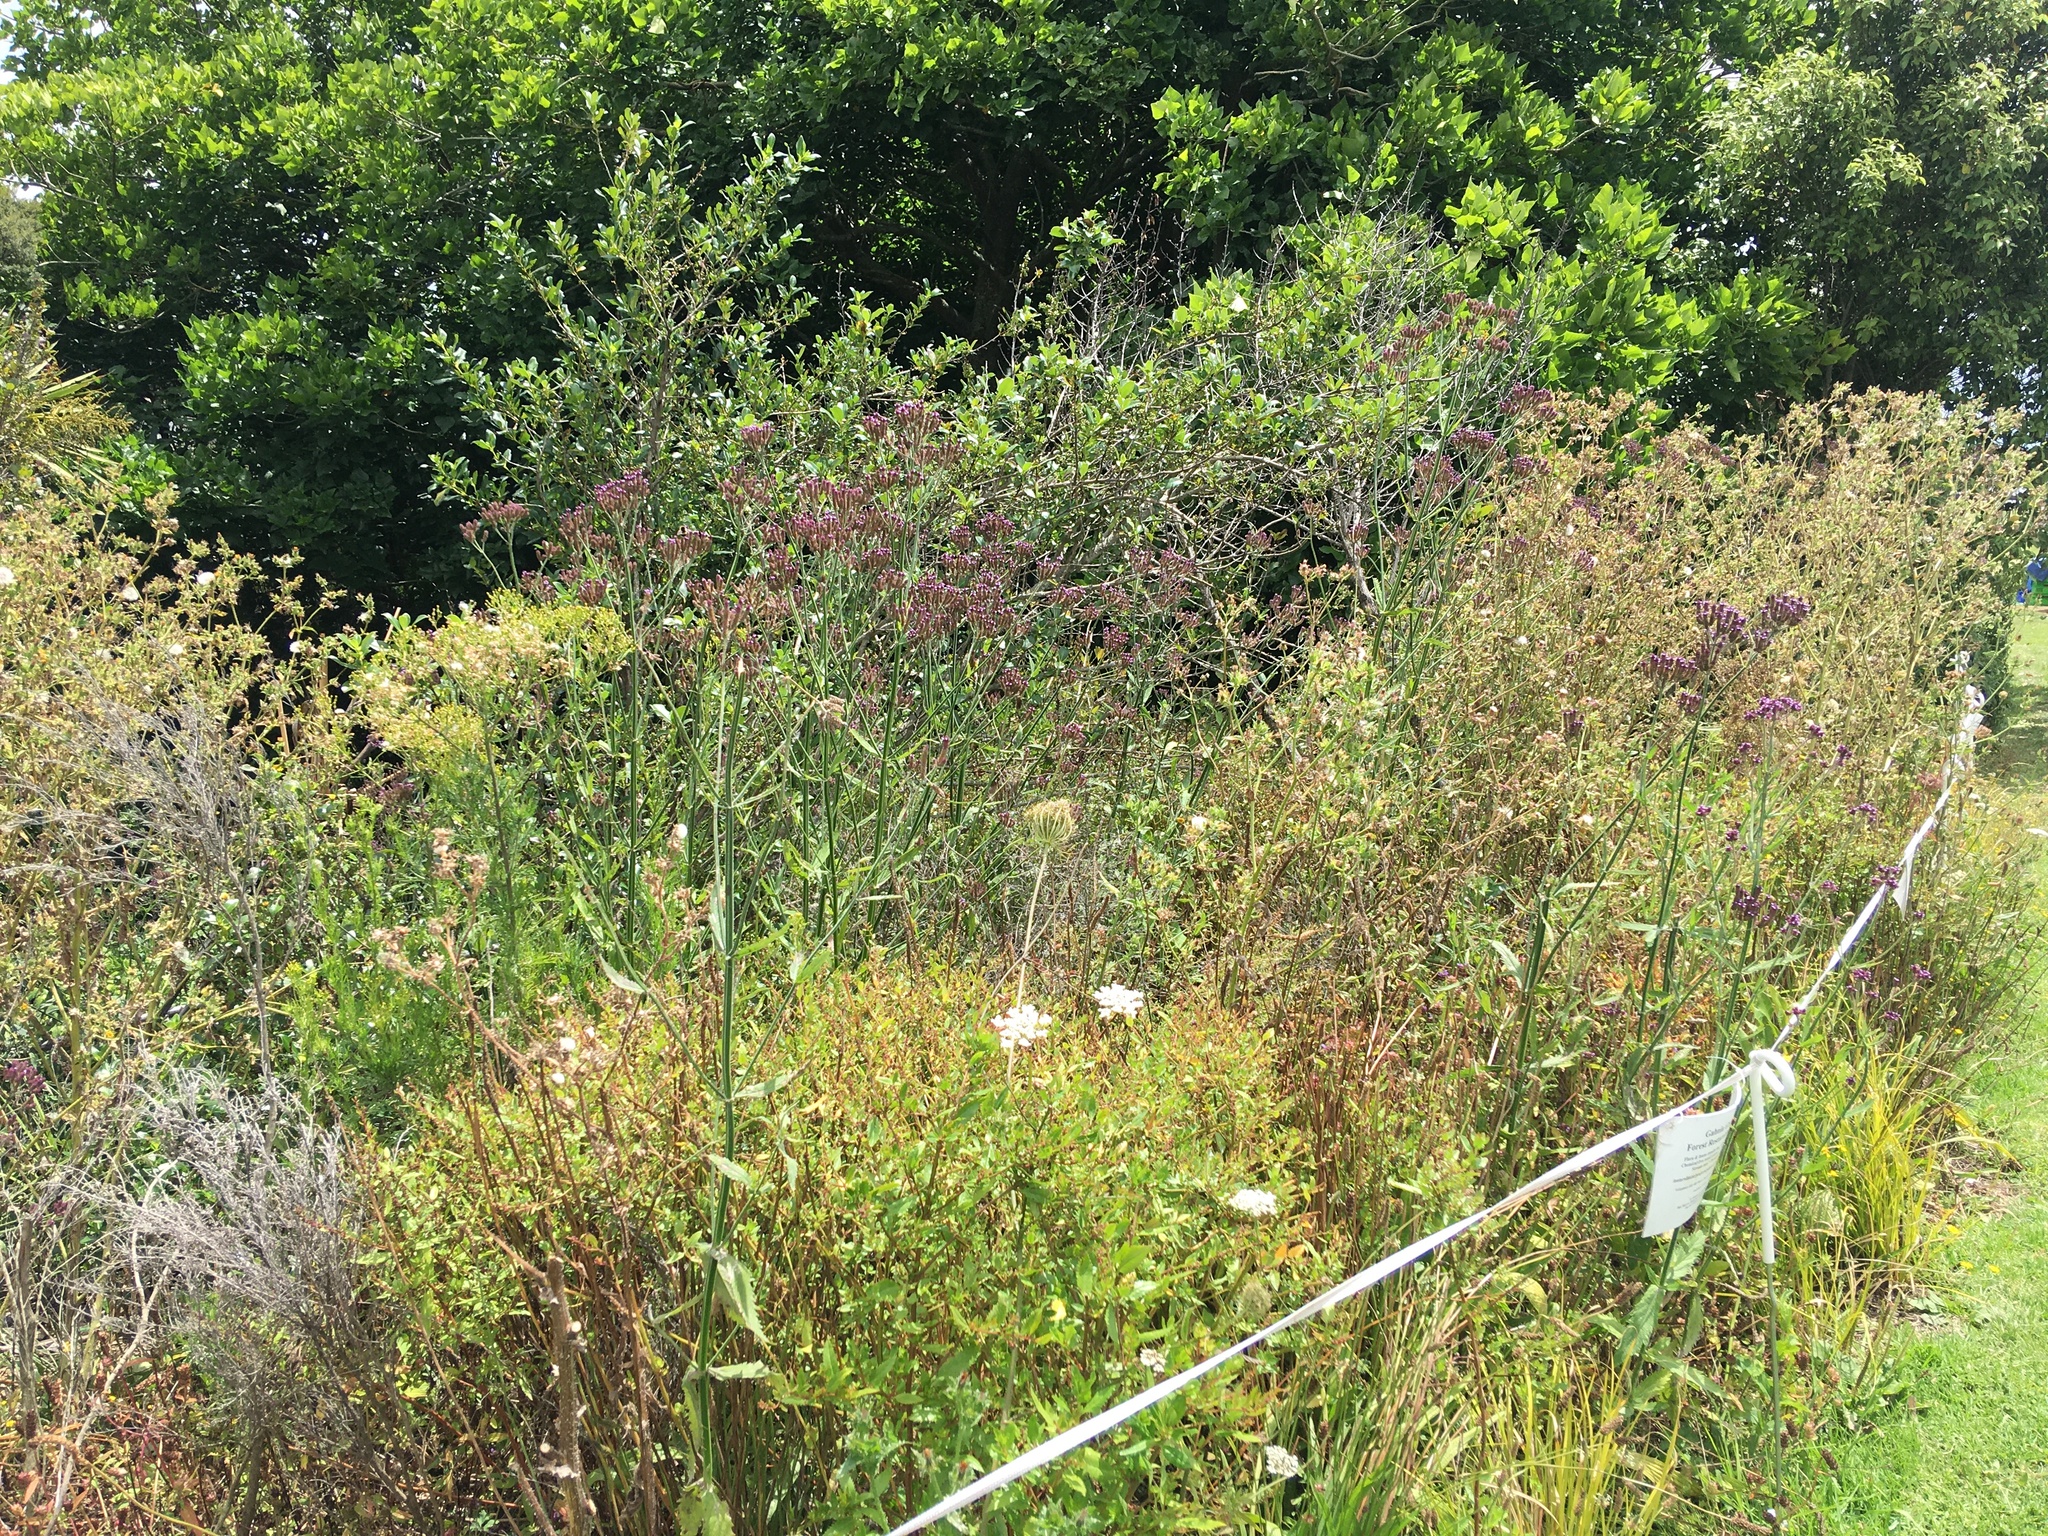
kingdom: Plantae
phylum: Tracheophyta
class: Magnoliopsida
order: Lamiales
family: Verbenaceae
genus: Verbena
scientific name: Verbena incompta
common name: Purpletop vervain
